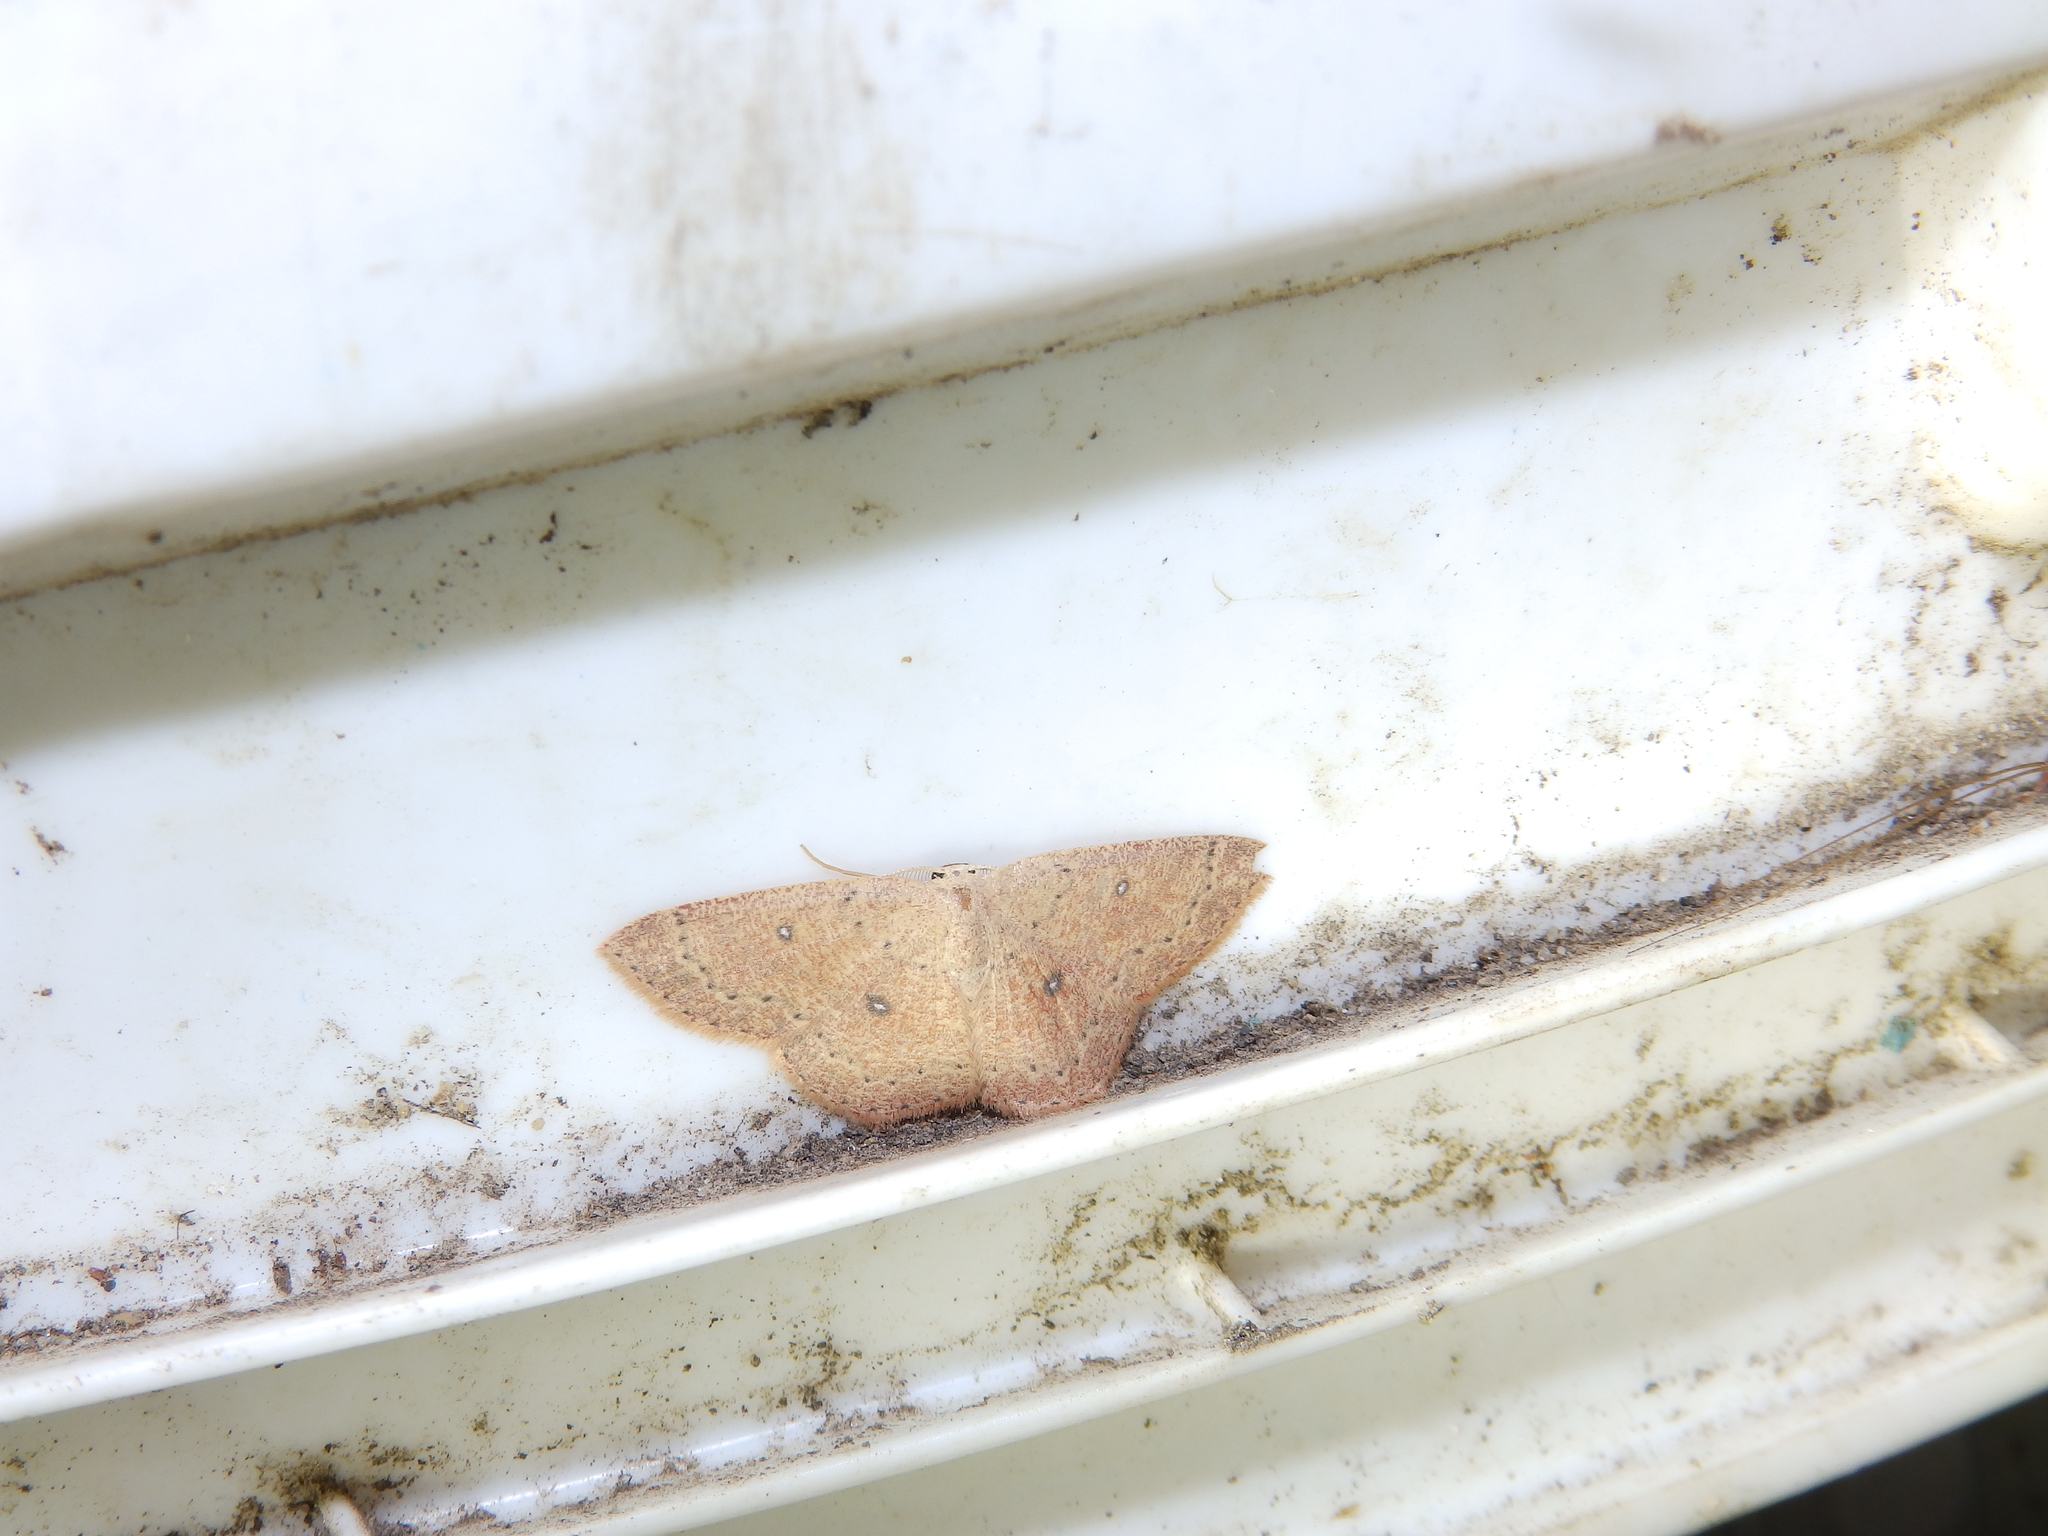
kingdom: Animalia
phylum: Arthropoda
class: Insecta
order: Lepidoptera
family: Geometridae
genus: Cyclophora
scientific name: Cyclophora packardi
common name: Packard's wave
